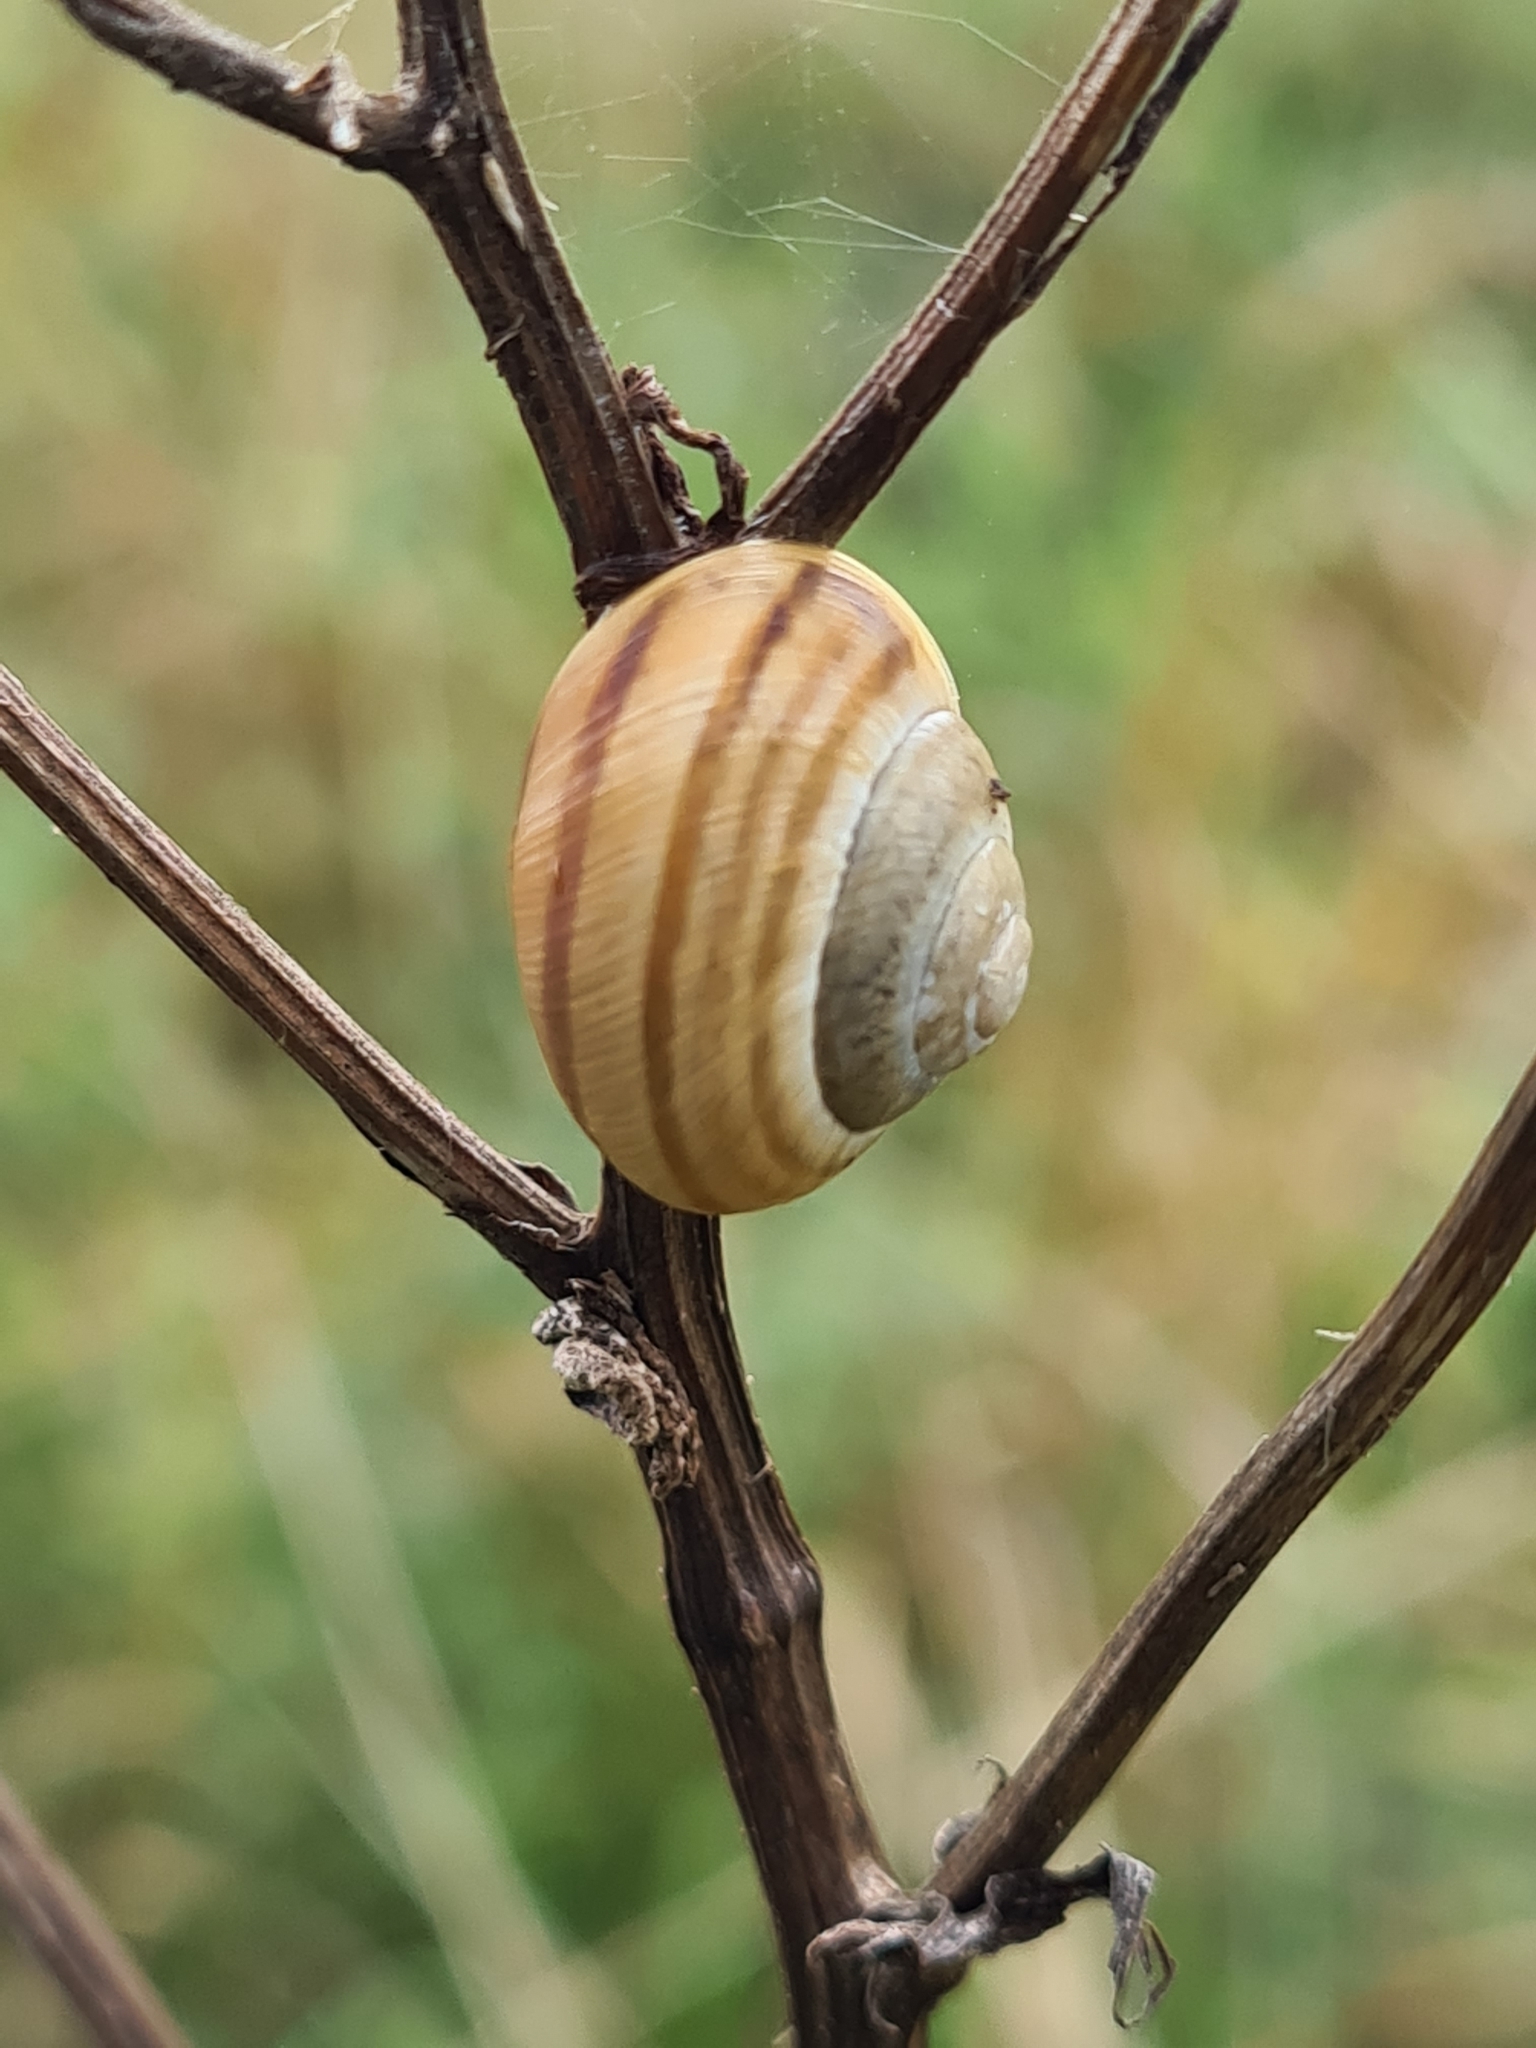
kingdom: Animalia
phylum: Mollusca
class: Gastropoda
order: Stylommatophora
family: Helicidae
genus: Caucasotachea
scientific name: Caucasotachea vindobonensis
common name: European helicid land snail
